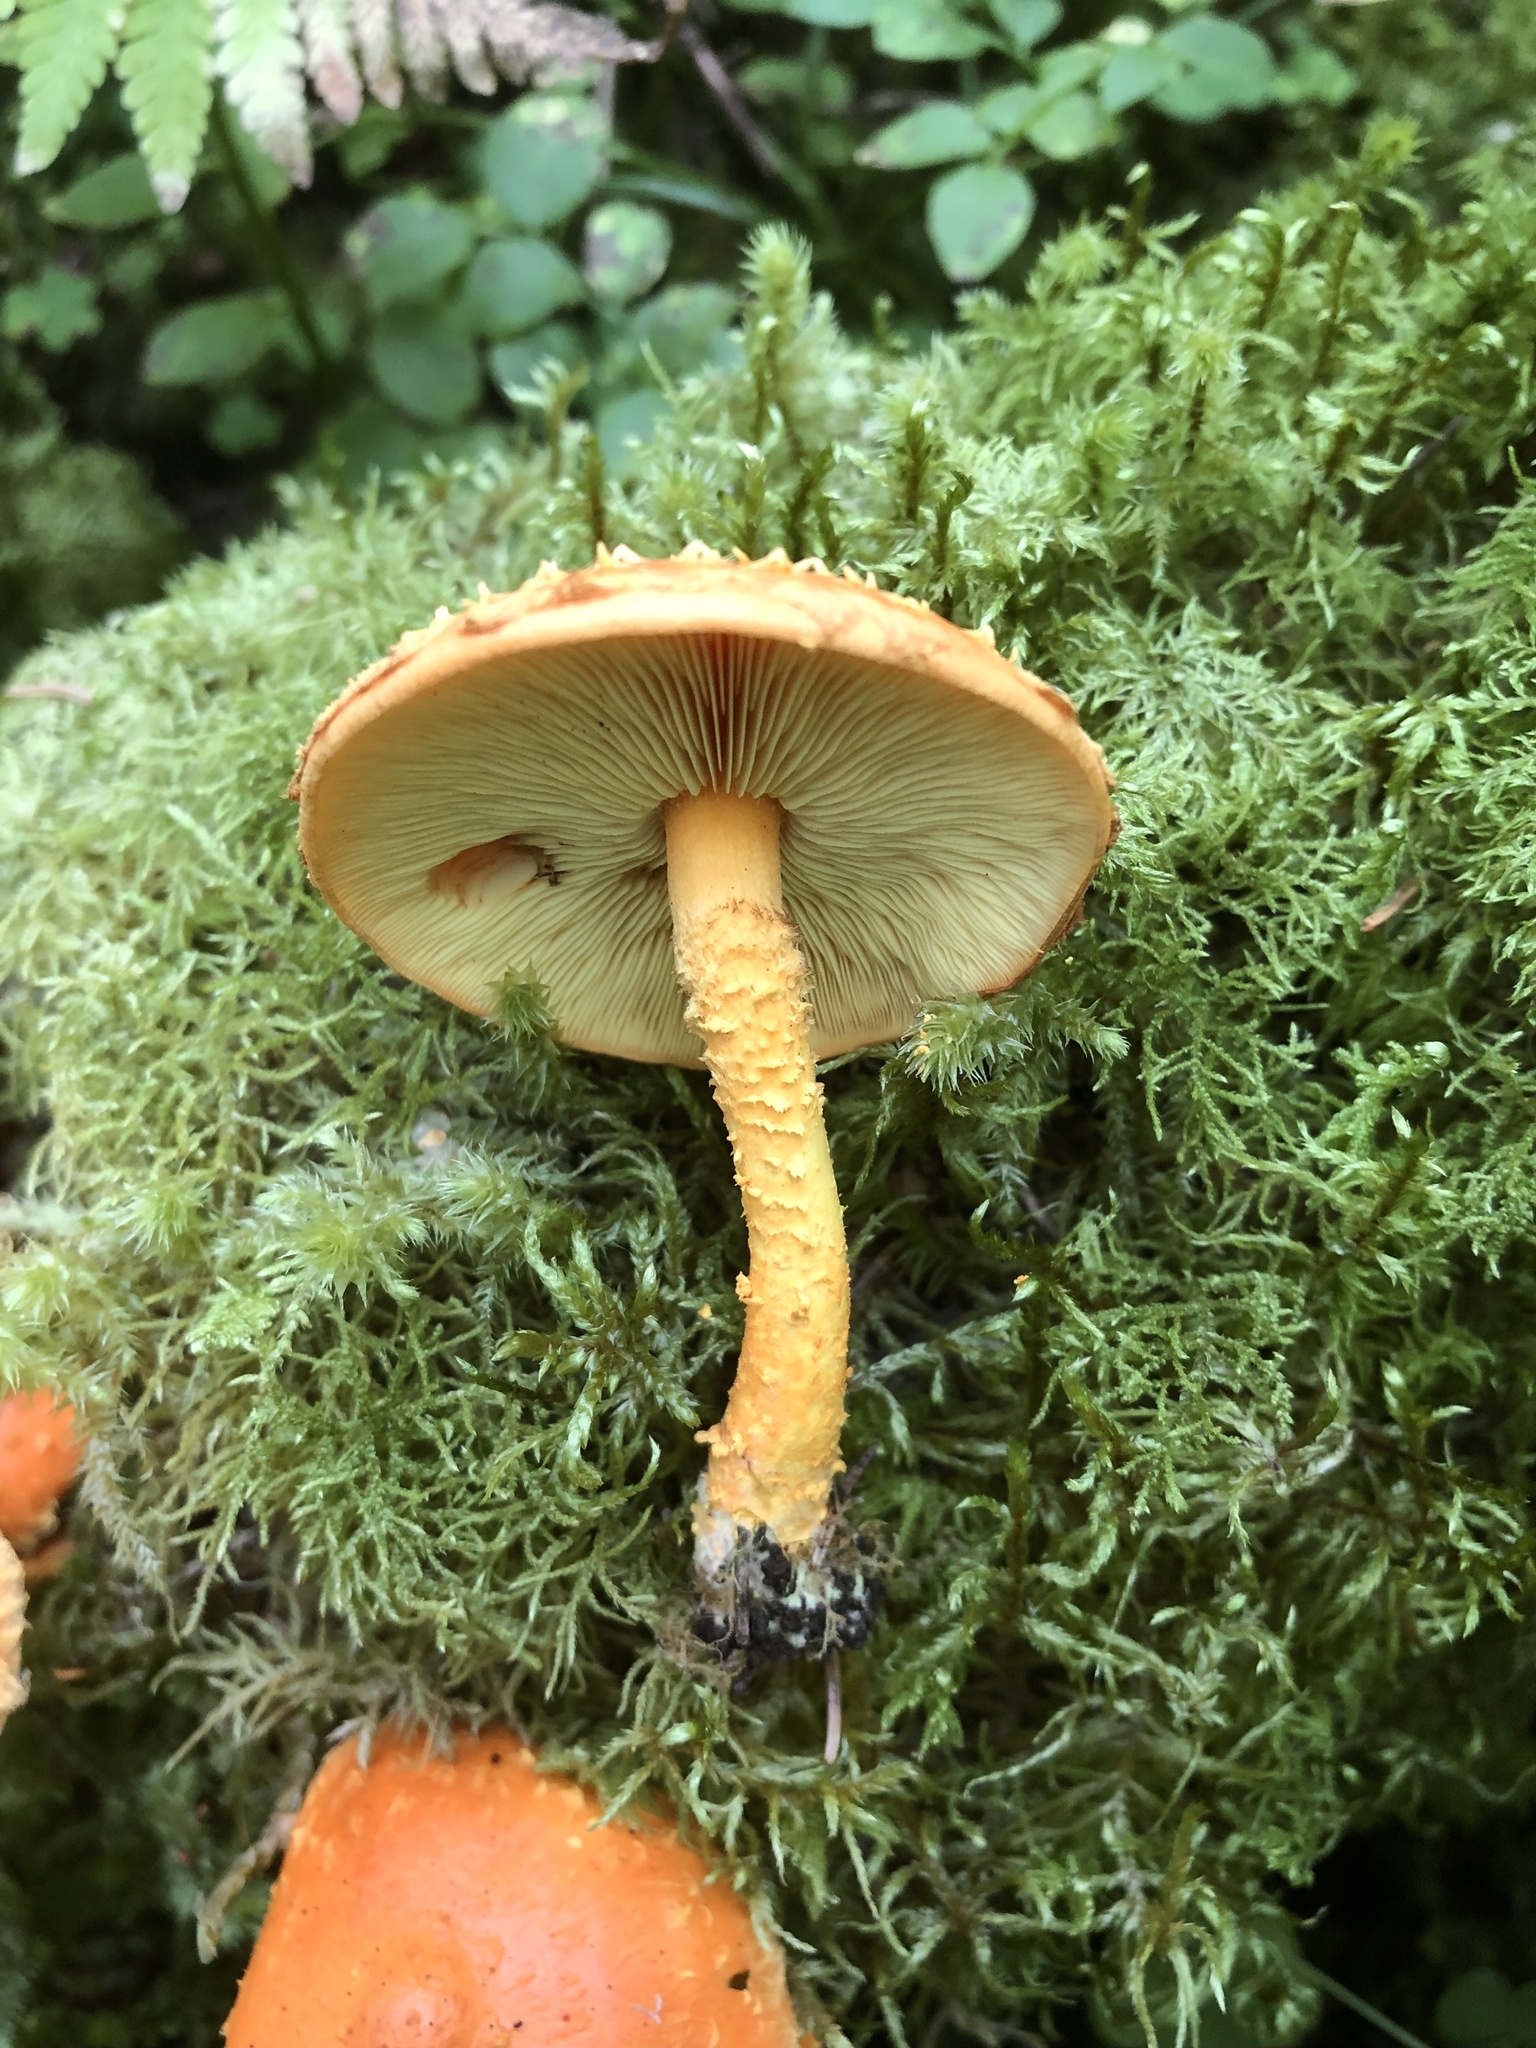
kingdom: Fungi
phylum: Basidiomycota
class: Agaricomycetes
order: Agaricales
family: Strophariaceae
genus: Pholiota
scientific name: Pholiota flammans
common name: Flaming scalycap
